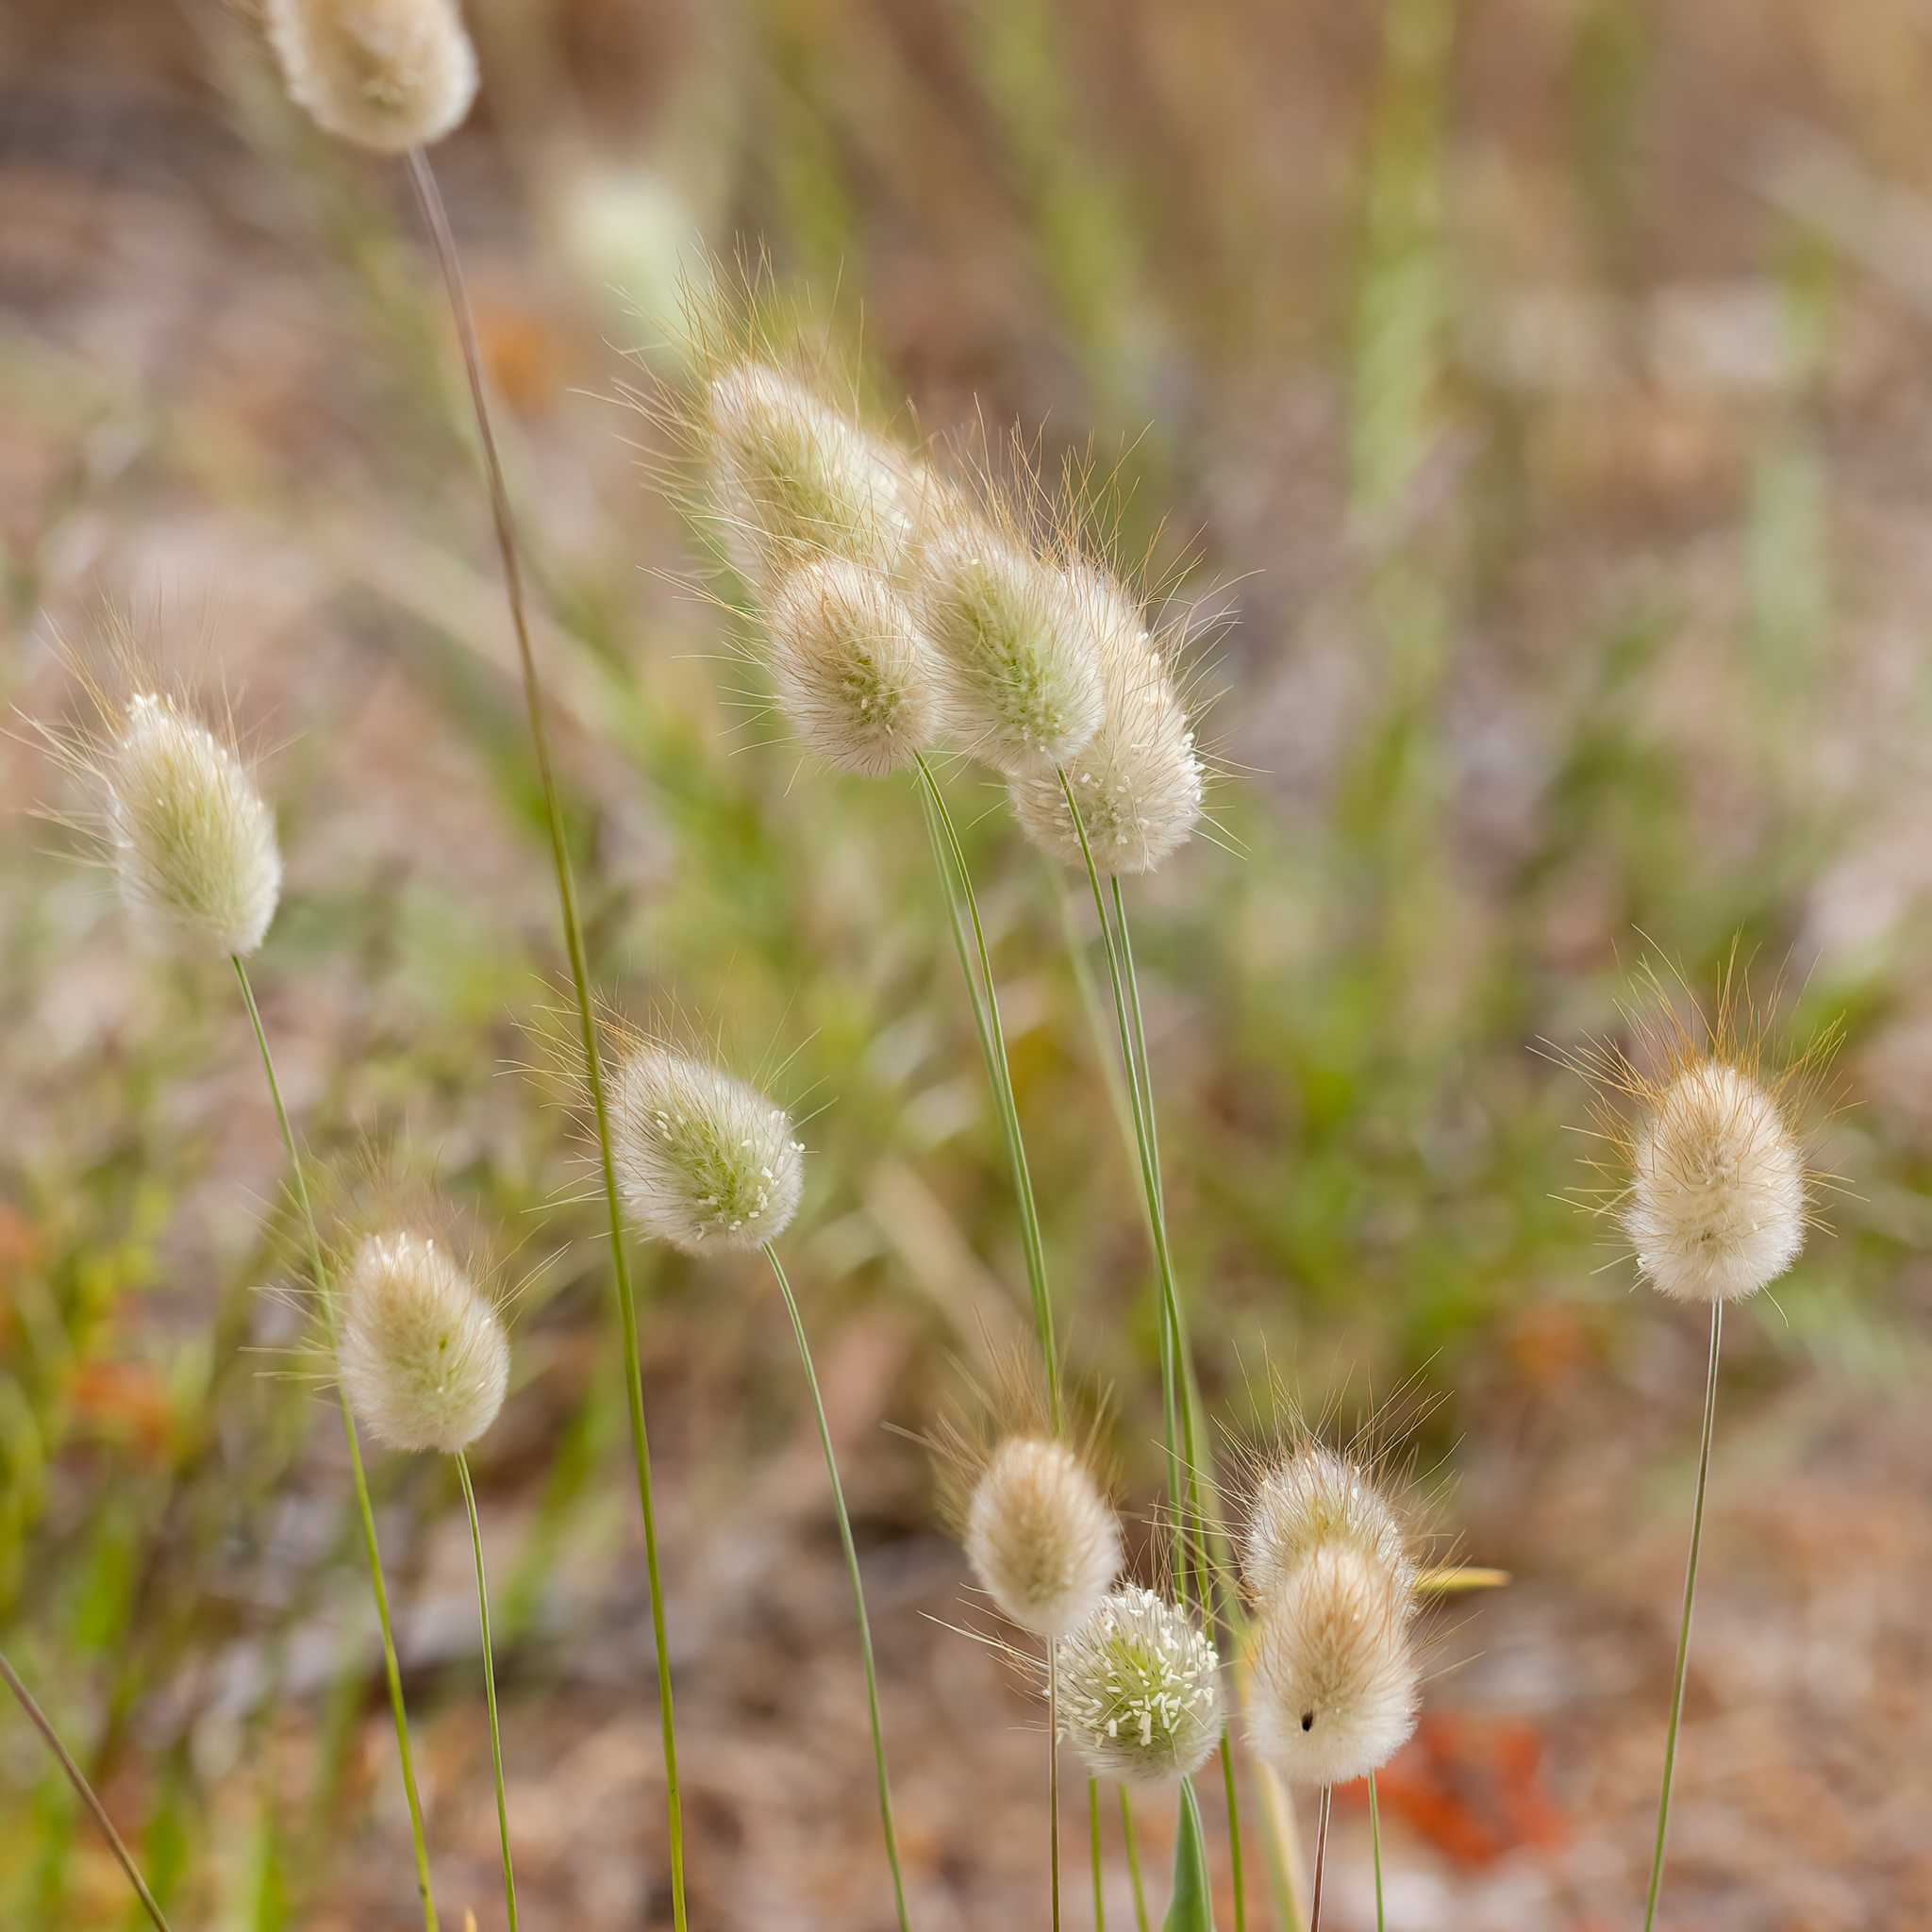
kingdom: Plantae
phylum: Tracheophyta
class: Liliopsida
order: Poales
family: Poaceae
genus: Lagurus
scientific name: Lagurus ovatus
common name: Hare's-tail
